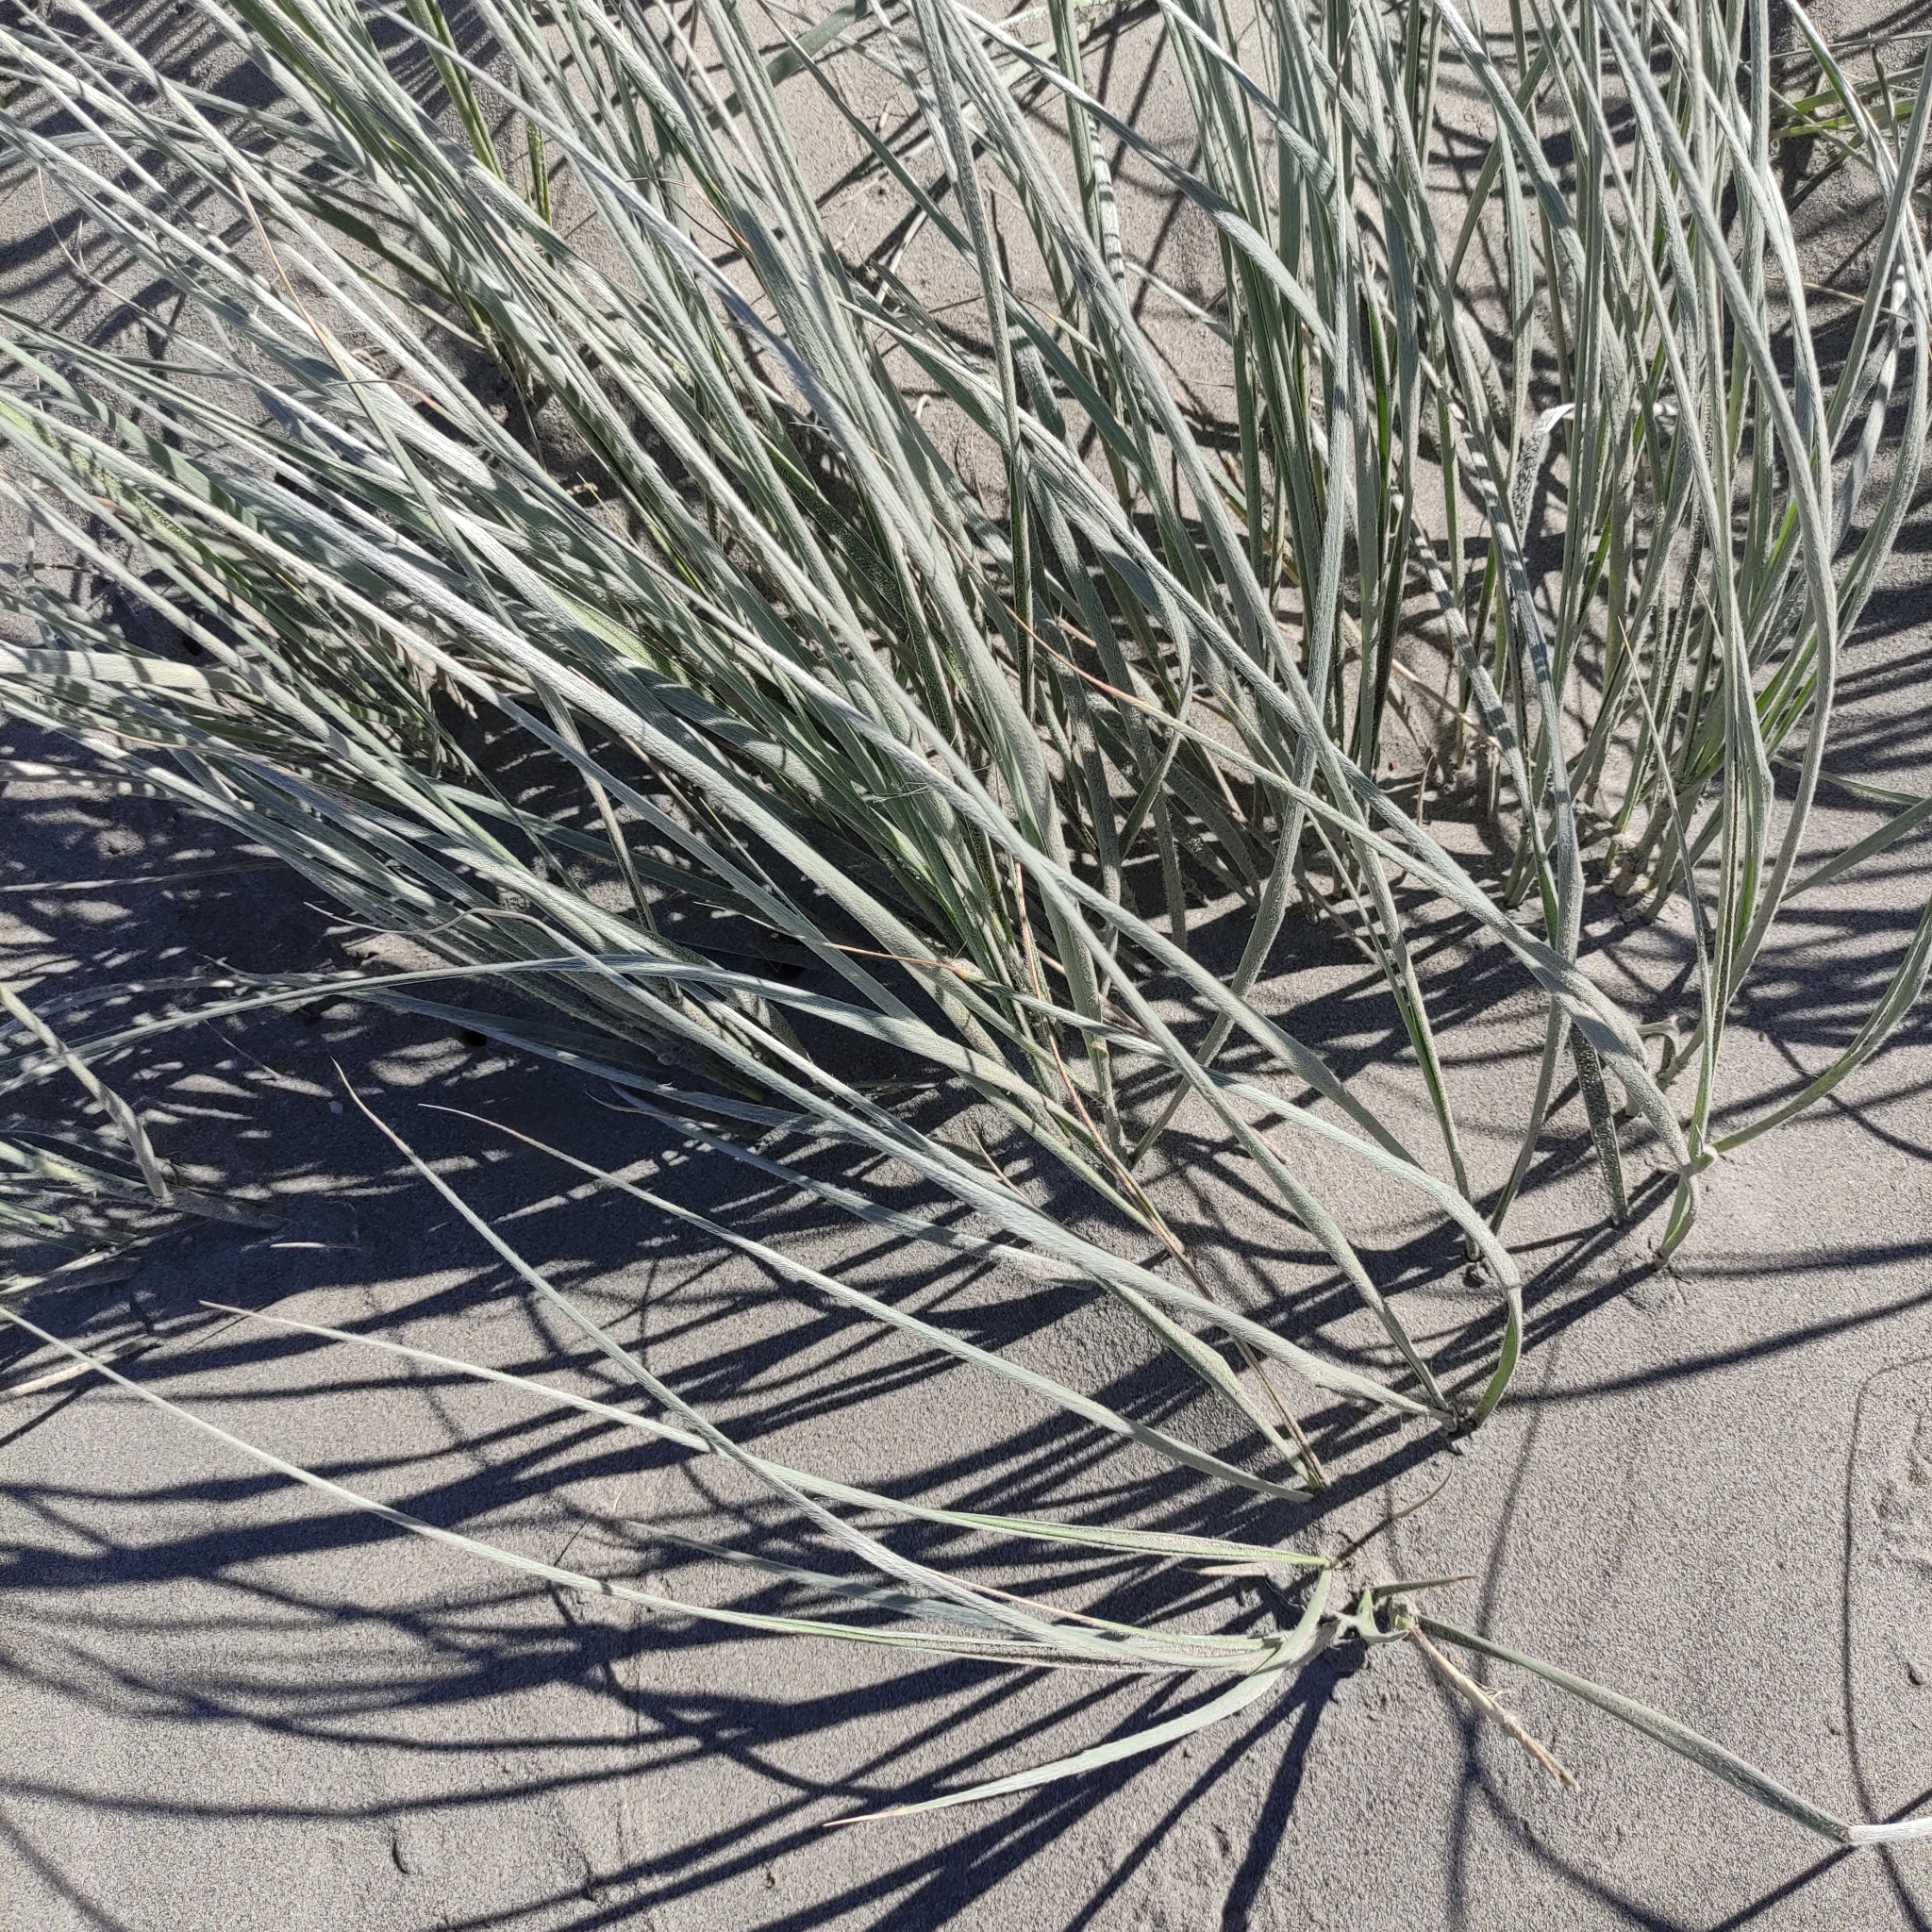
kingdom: Plantae
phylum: Tracheophyta
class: Liliopsida
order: Poales
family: Poaceae
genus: Spinifex
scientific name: Spinifex sericeus
